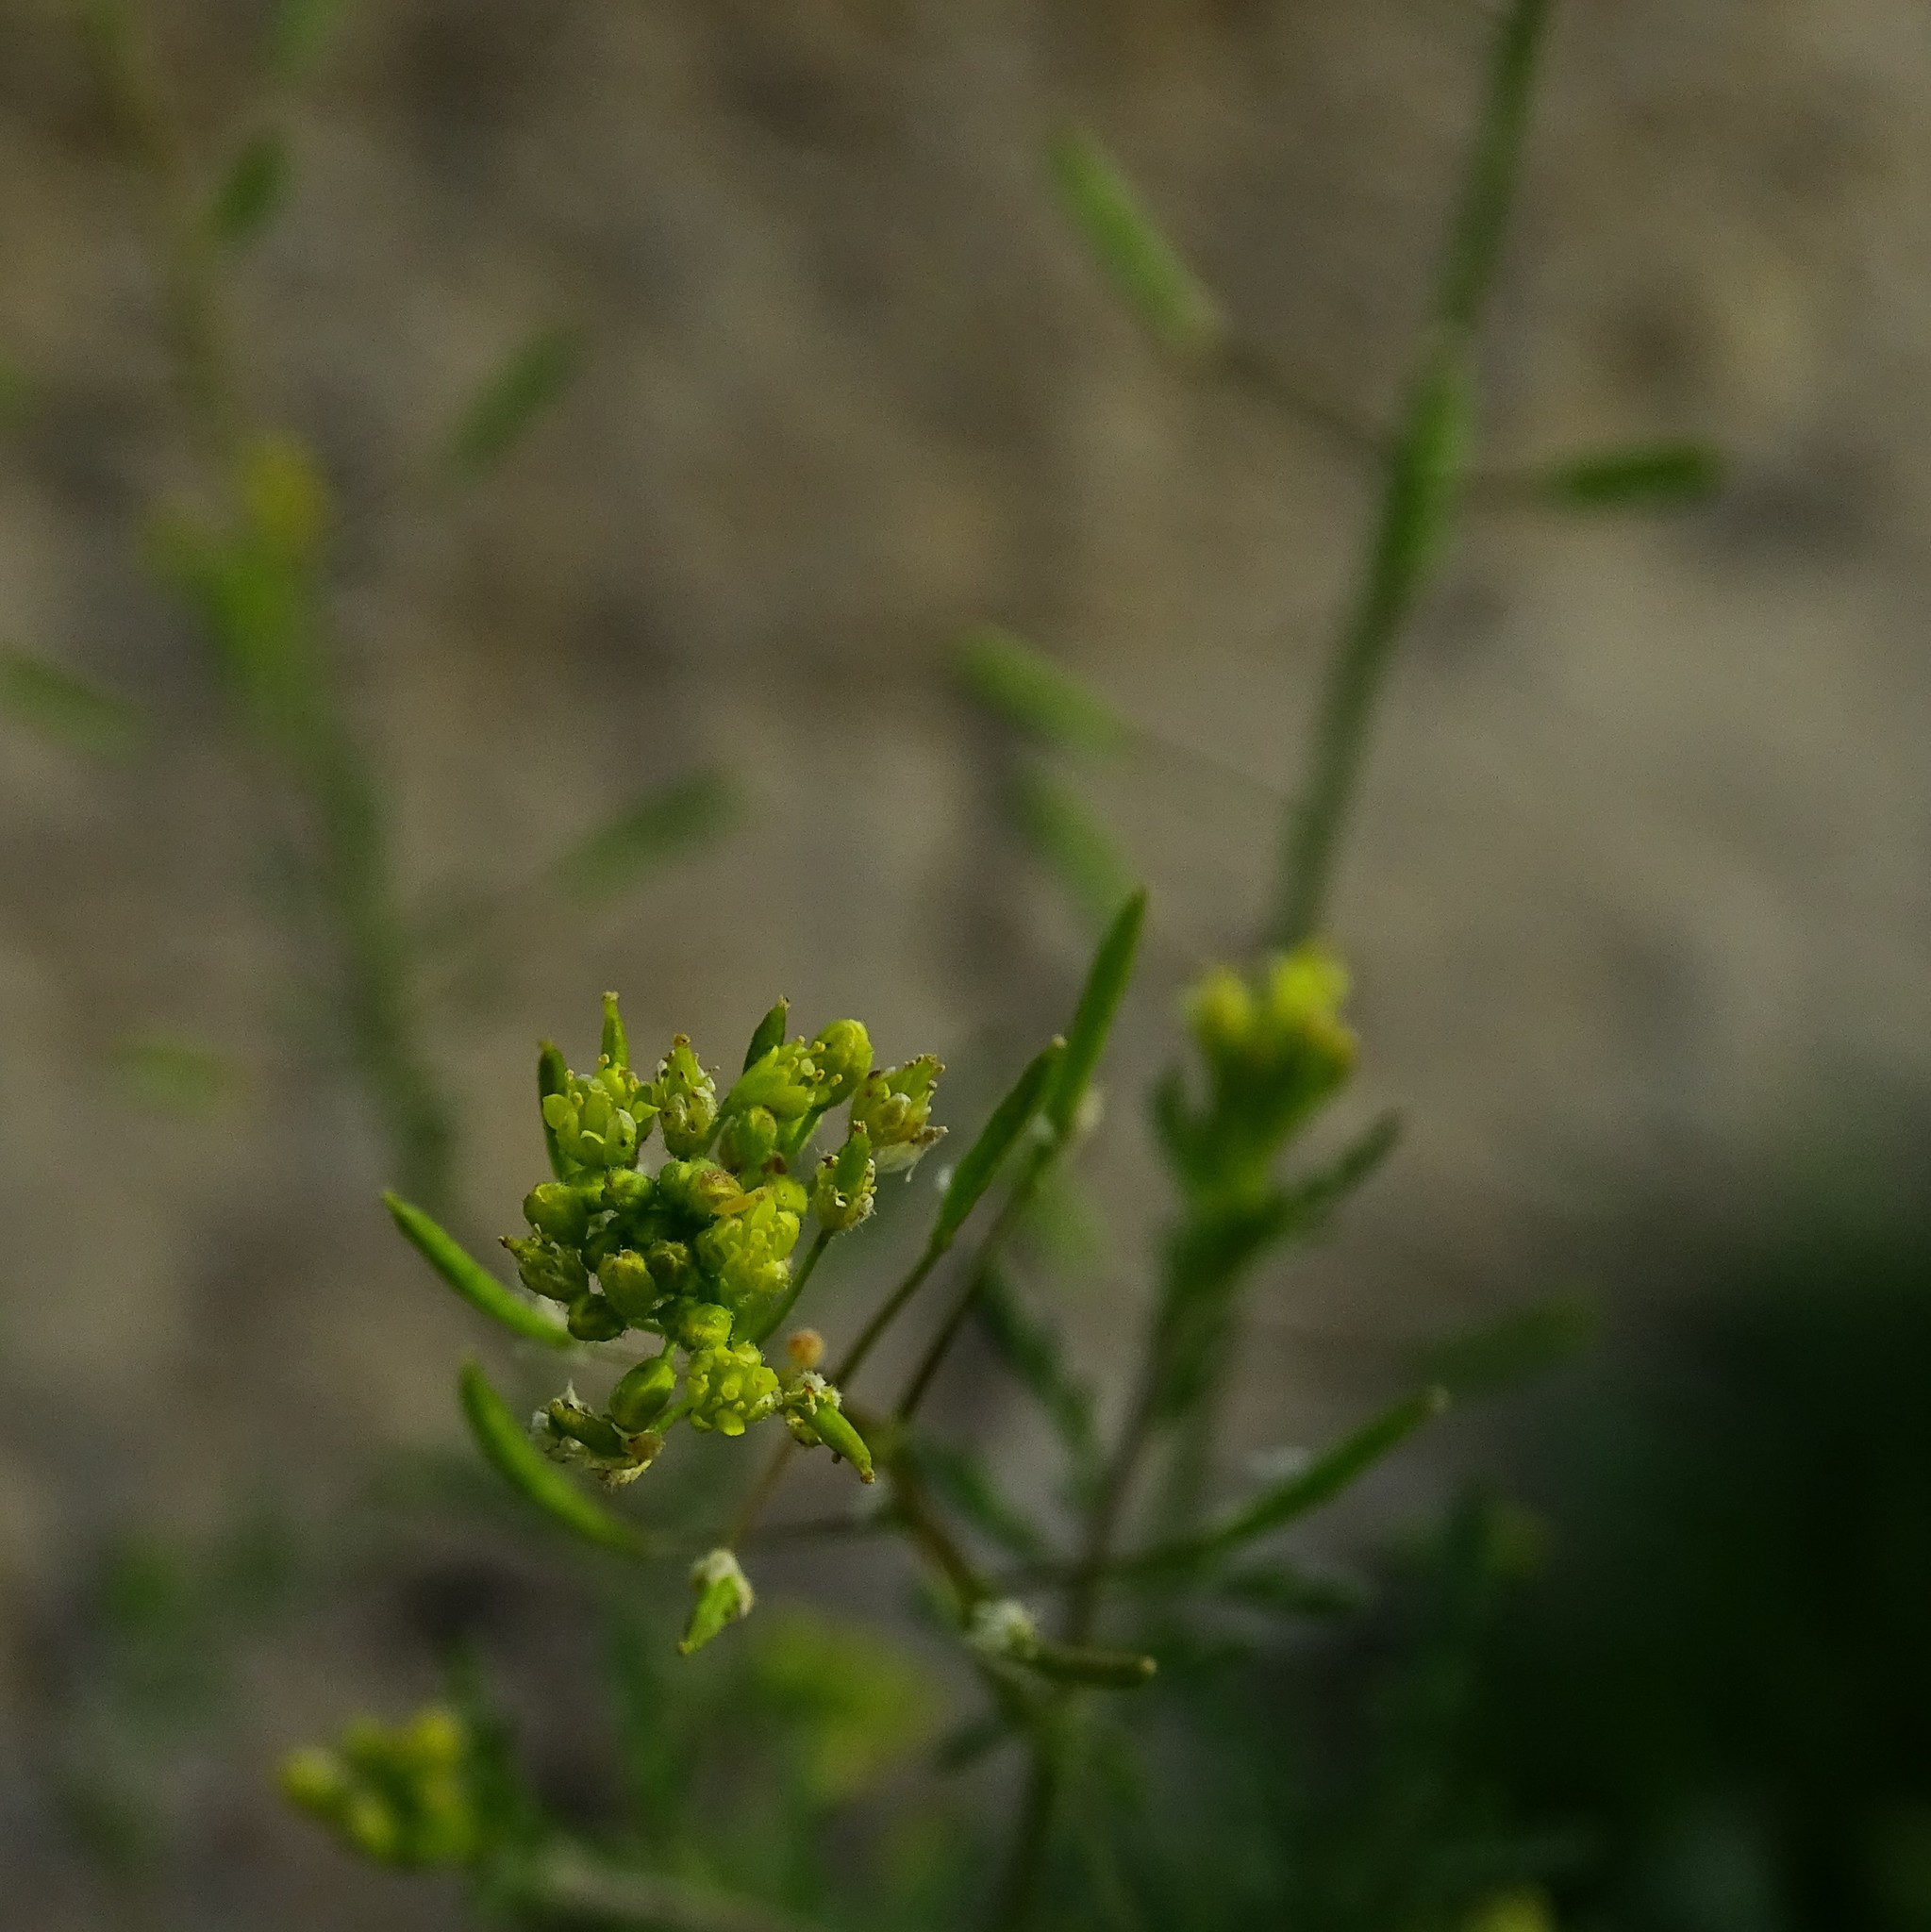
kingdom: Plantae
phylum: Tracheophyta
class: Magnoliopsida
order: Brassicales
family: Brassicaceae
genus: Descurainia
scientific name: Descurainia pinnata
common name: Western tansy mustard
